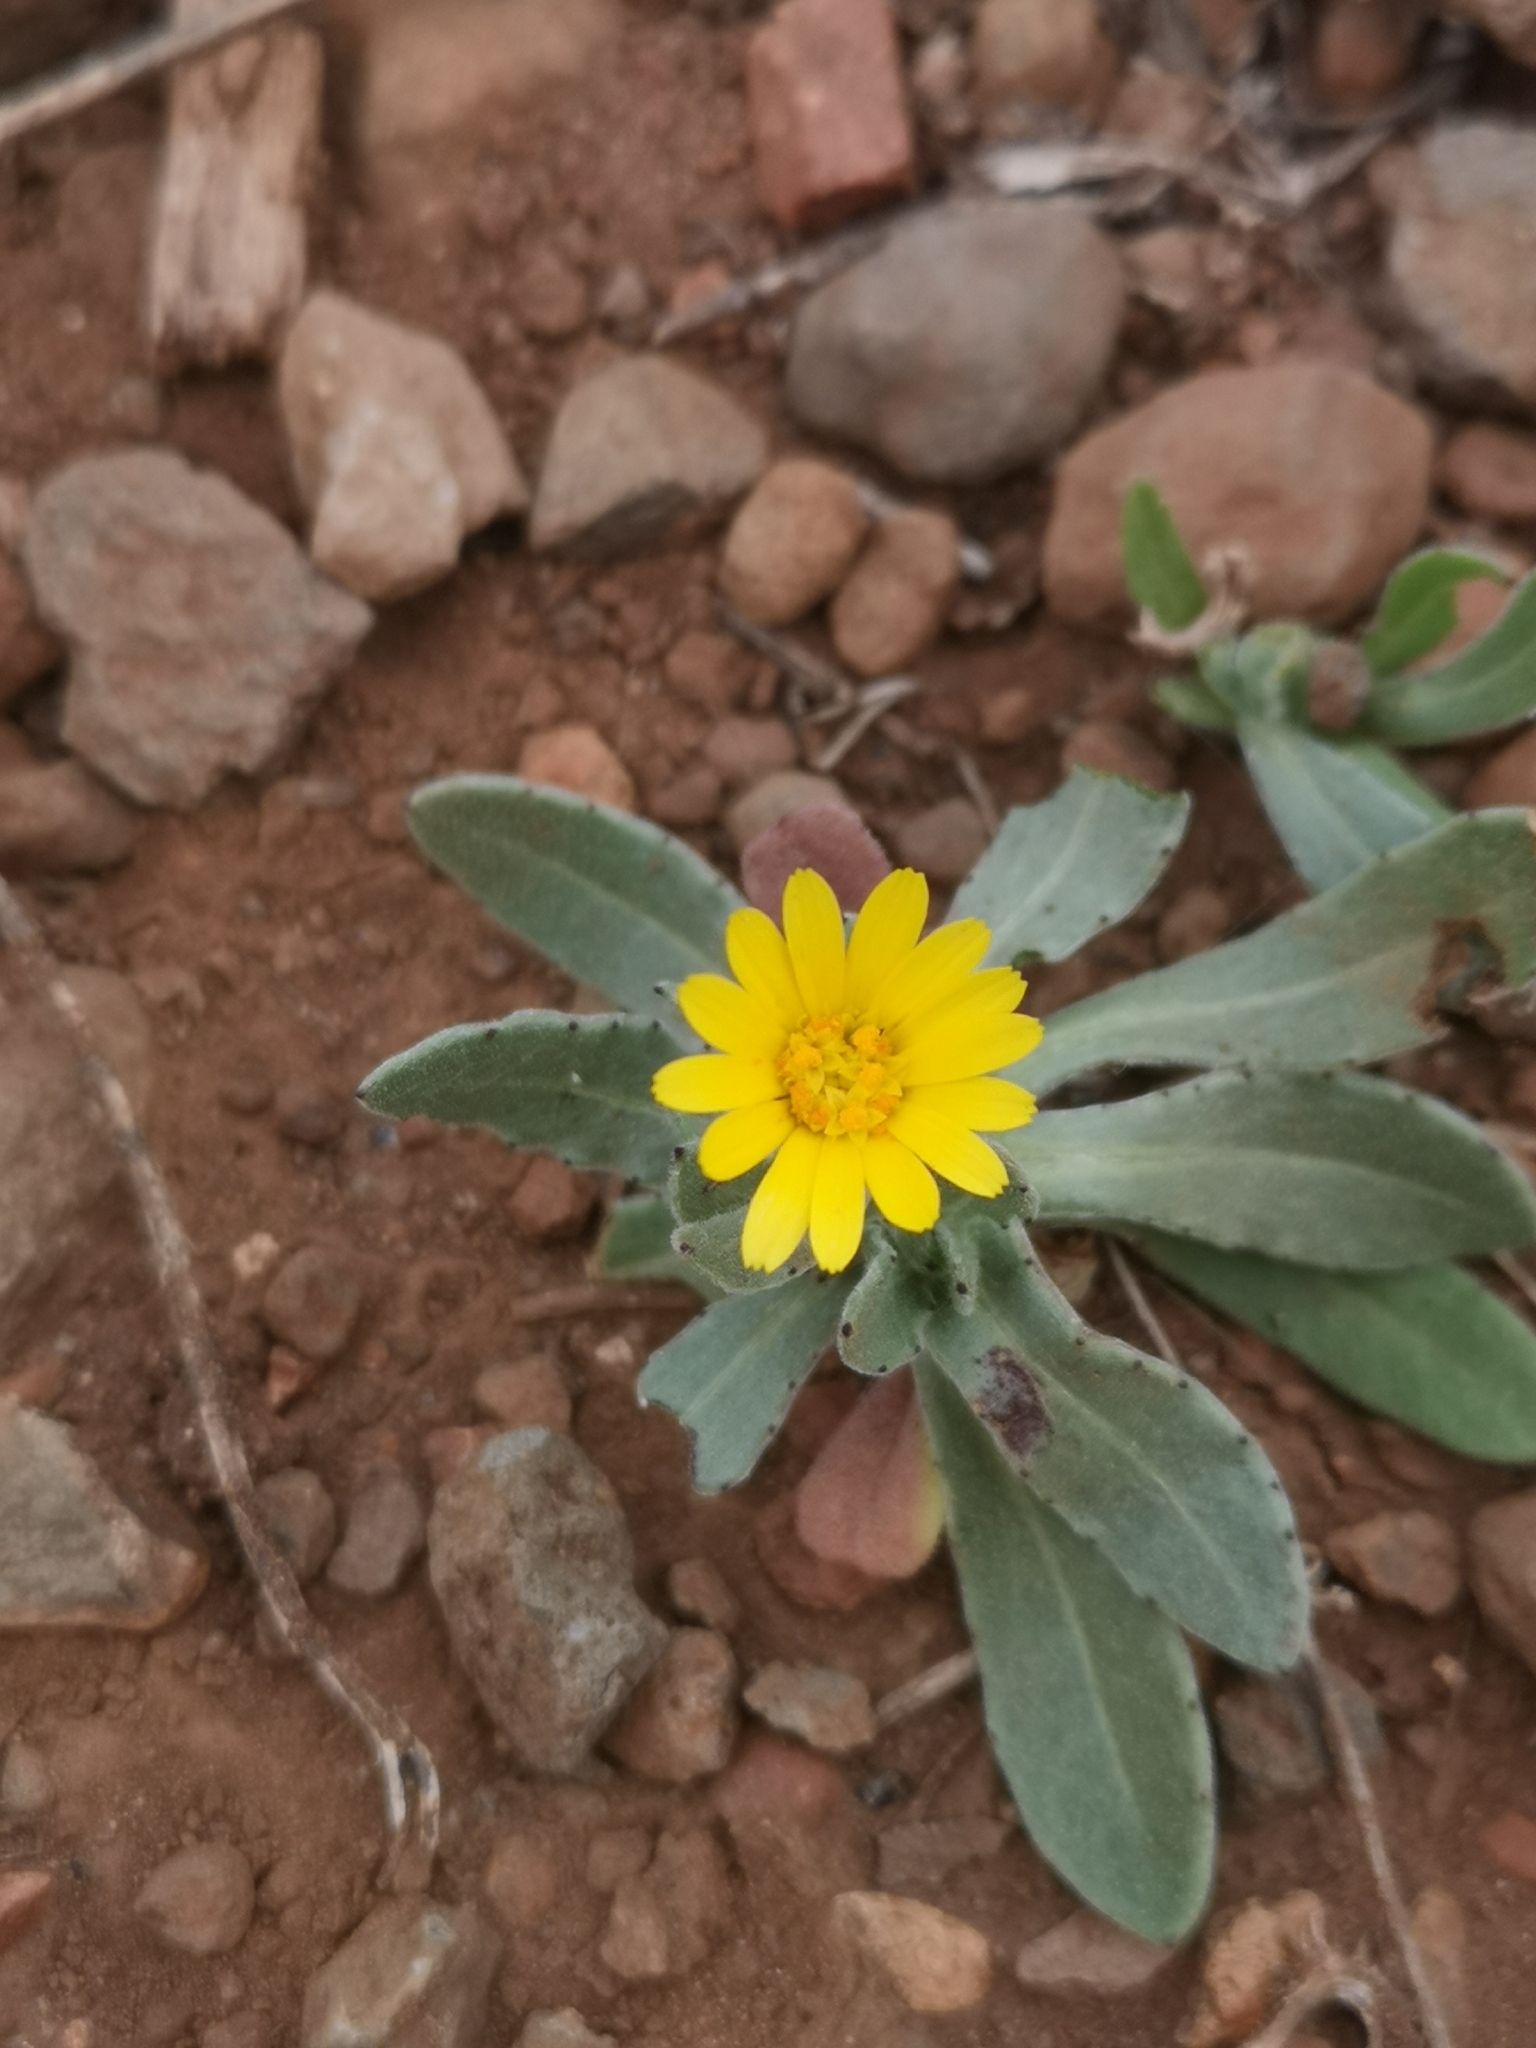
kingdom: Plantae
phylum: Tracheophyta
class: Magnoliopsida
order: Asterales
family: Asteraceae
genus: Calendula
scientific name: Calendula arvensis
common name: Field marigold
